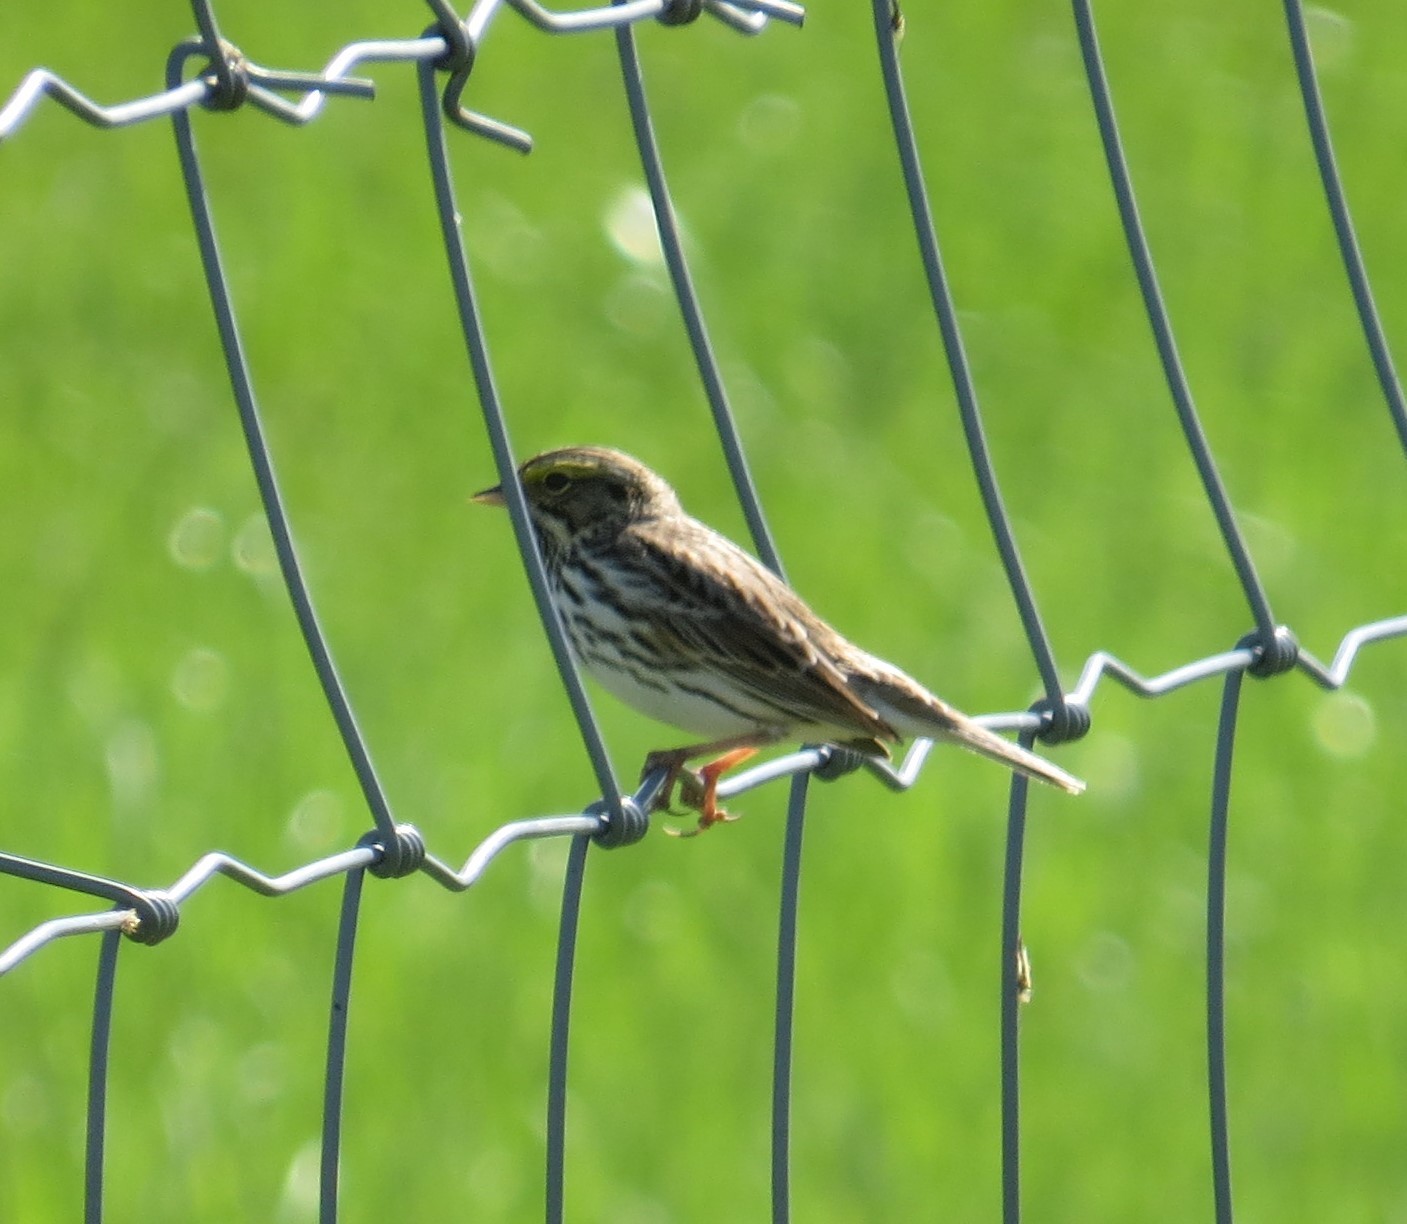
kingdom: Animalia
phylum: Chordata
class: Aves
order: Passeriformes
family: Passerellidae
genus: Passerculus
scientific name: Passerculus sandwichensis
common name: Savannah sparrow
